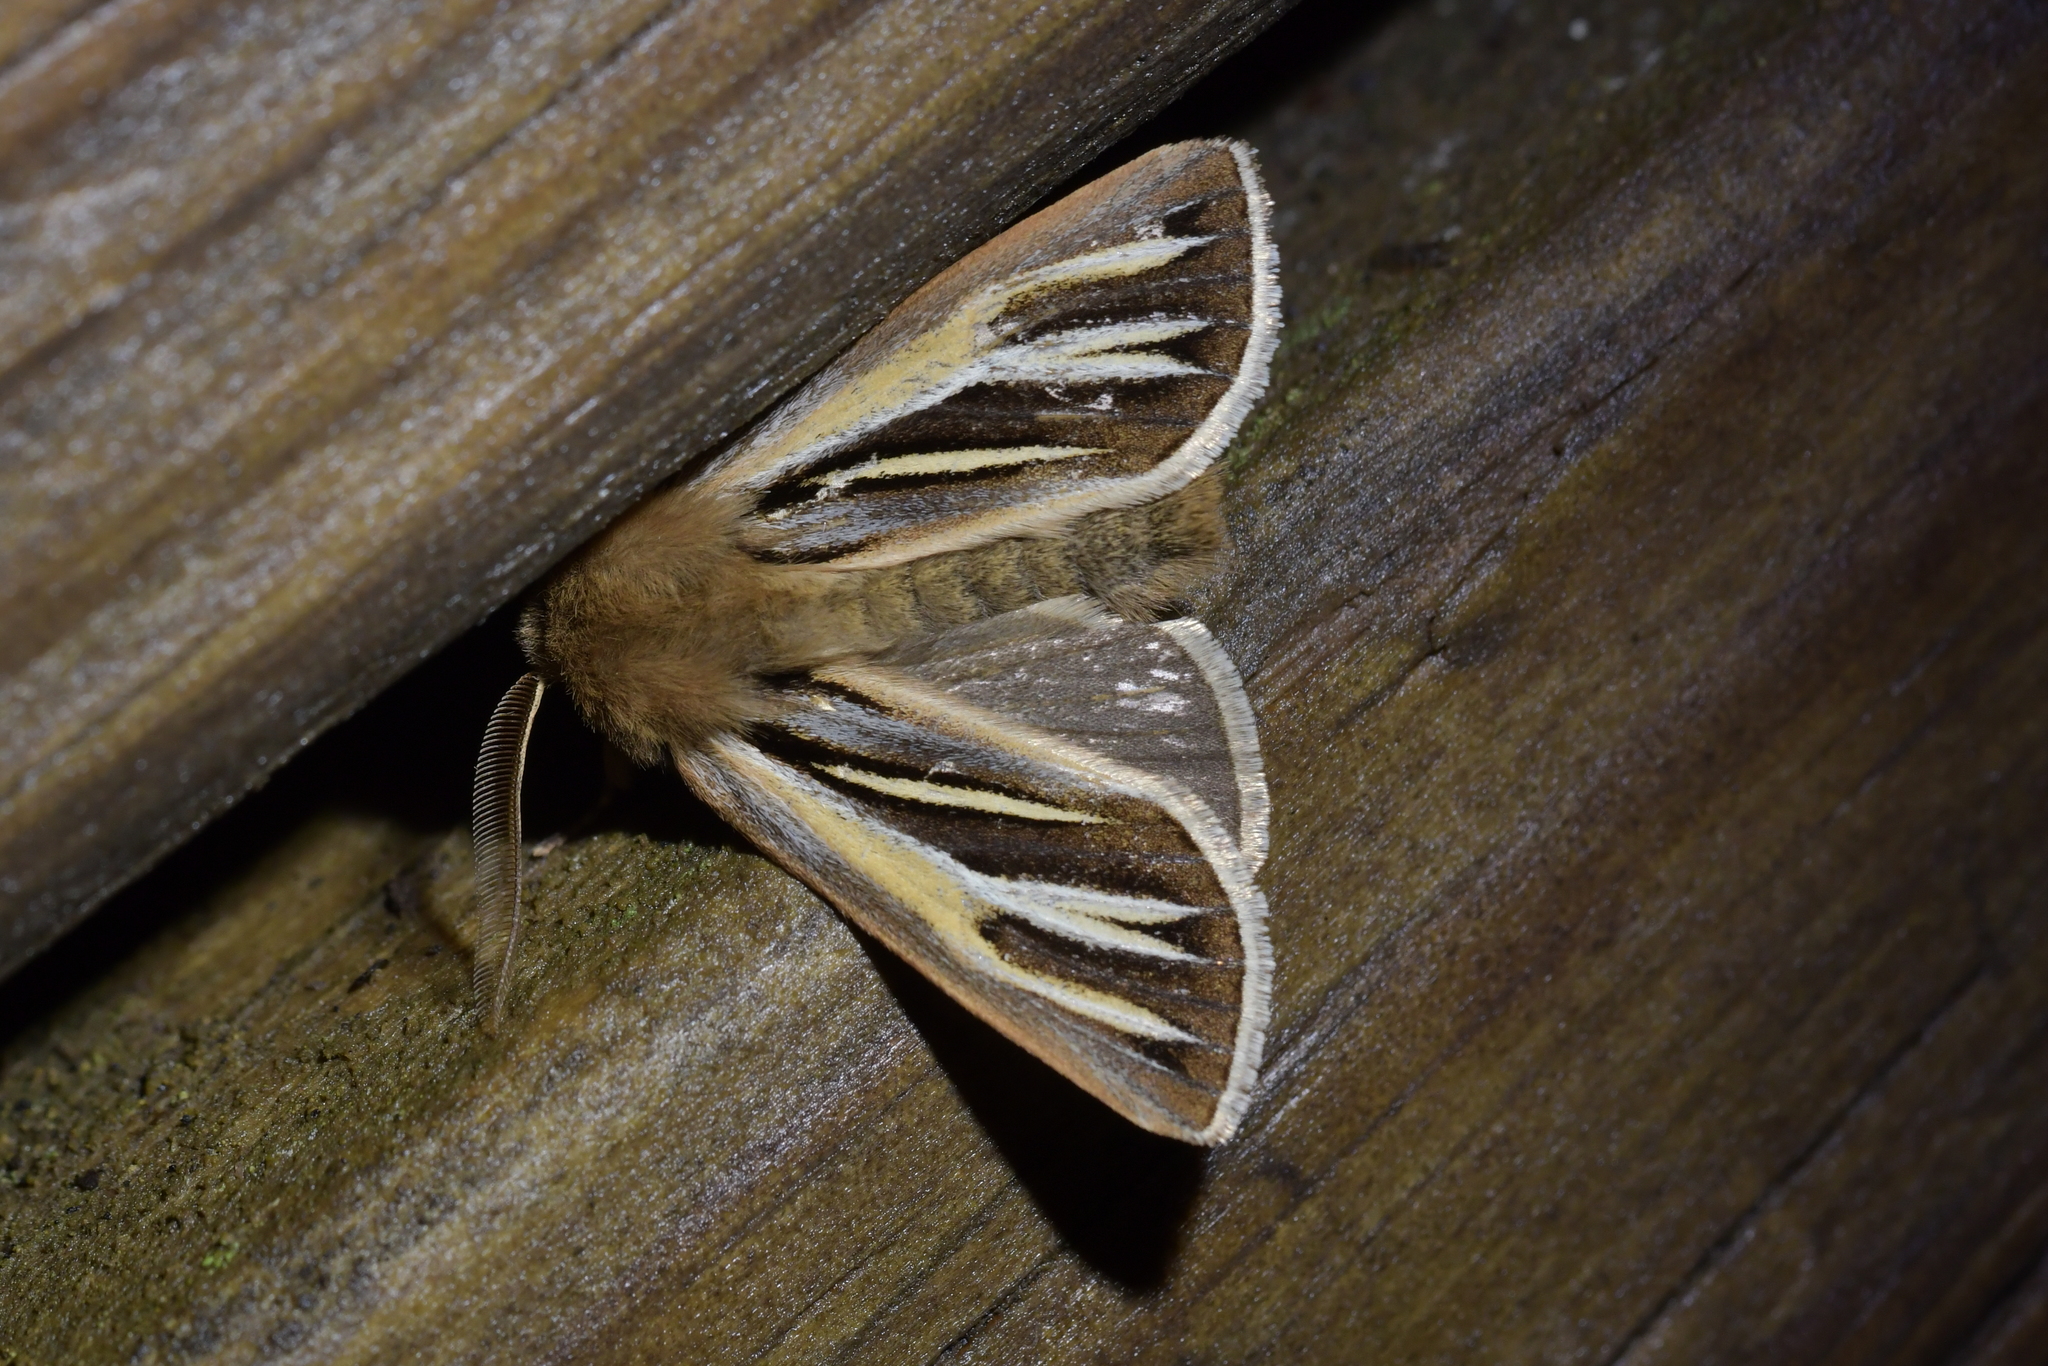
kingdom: Animalia
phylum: Arthropoda
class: Insecta
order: Lepidoptera
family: Noctuidae
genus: Ichneutica
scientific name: Ichneutica caraunias
